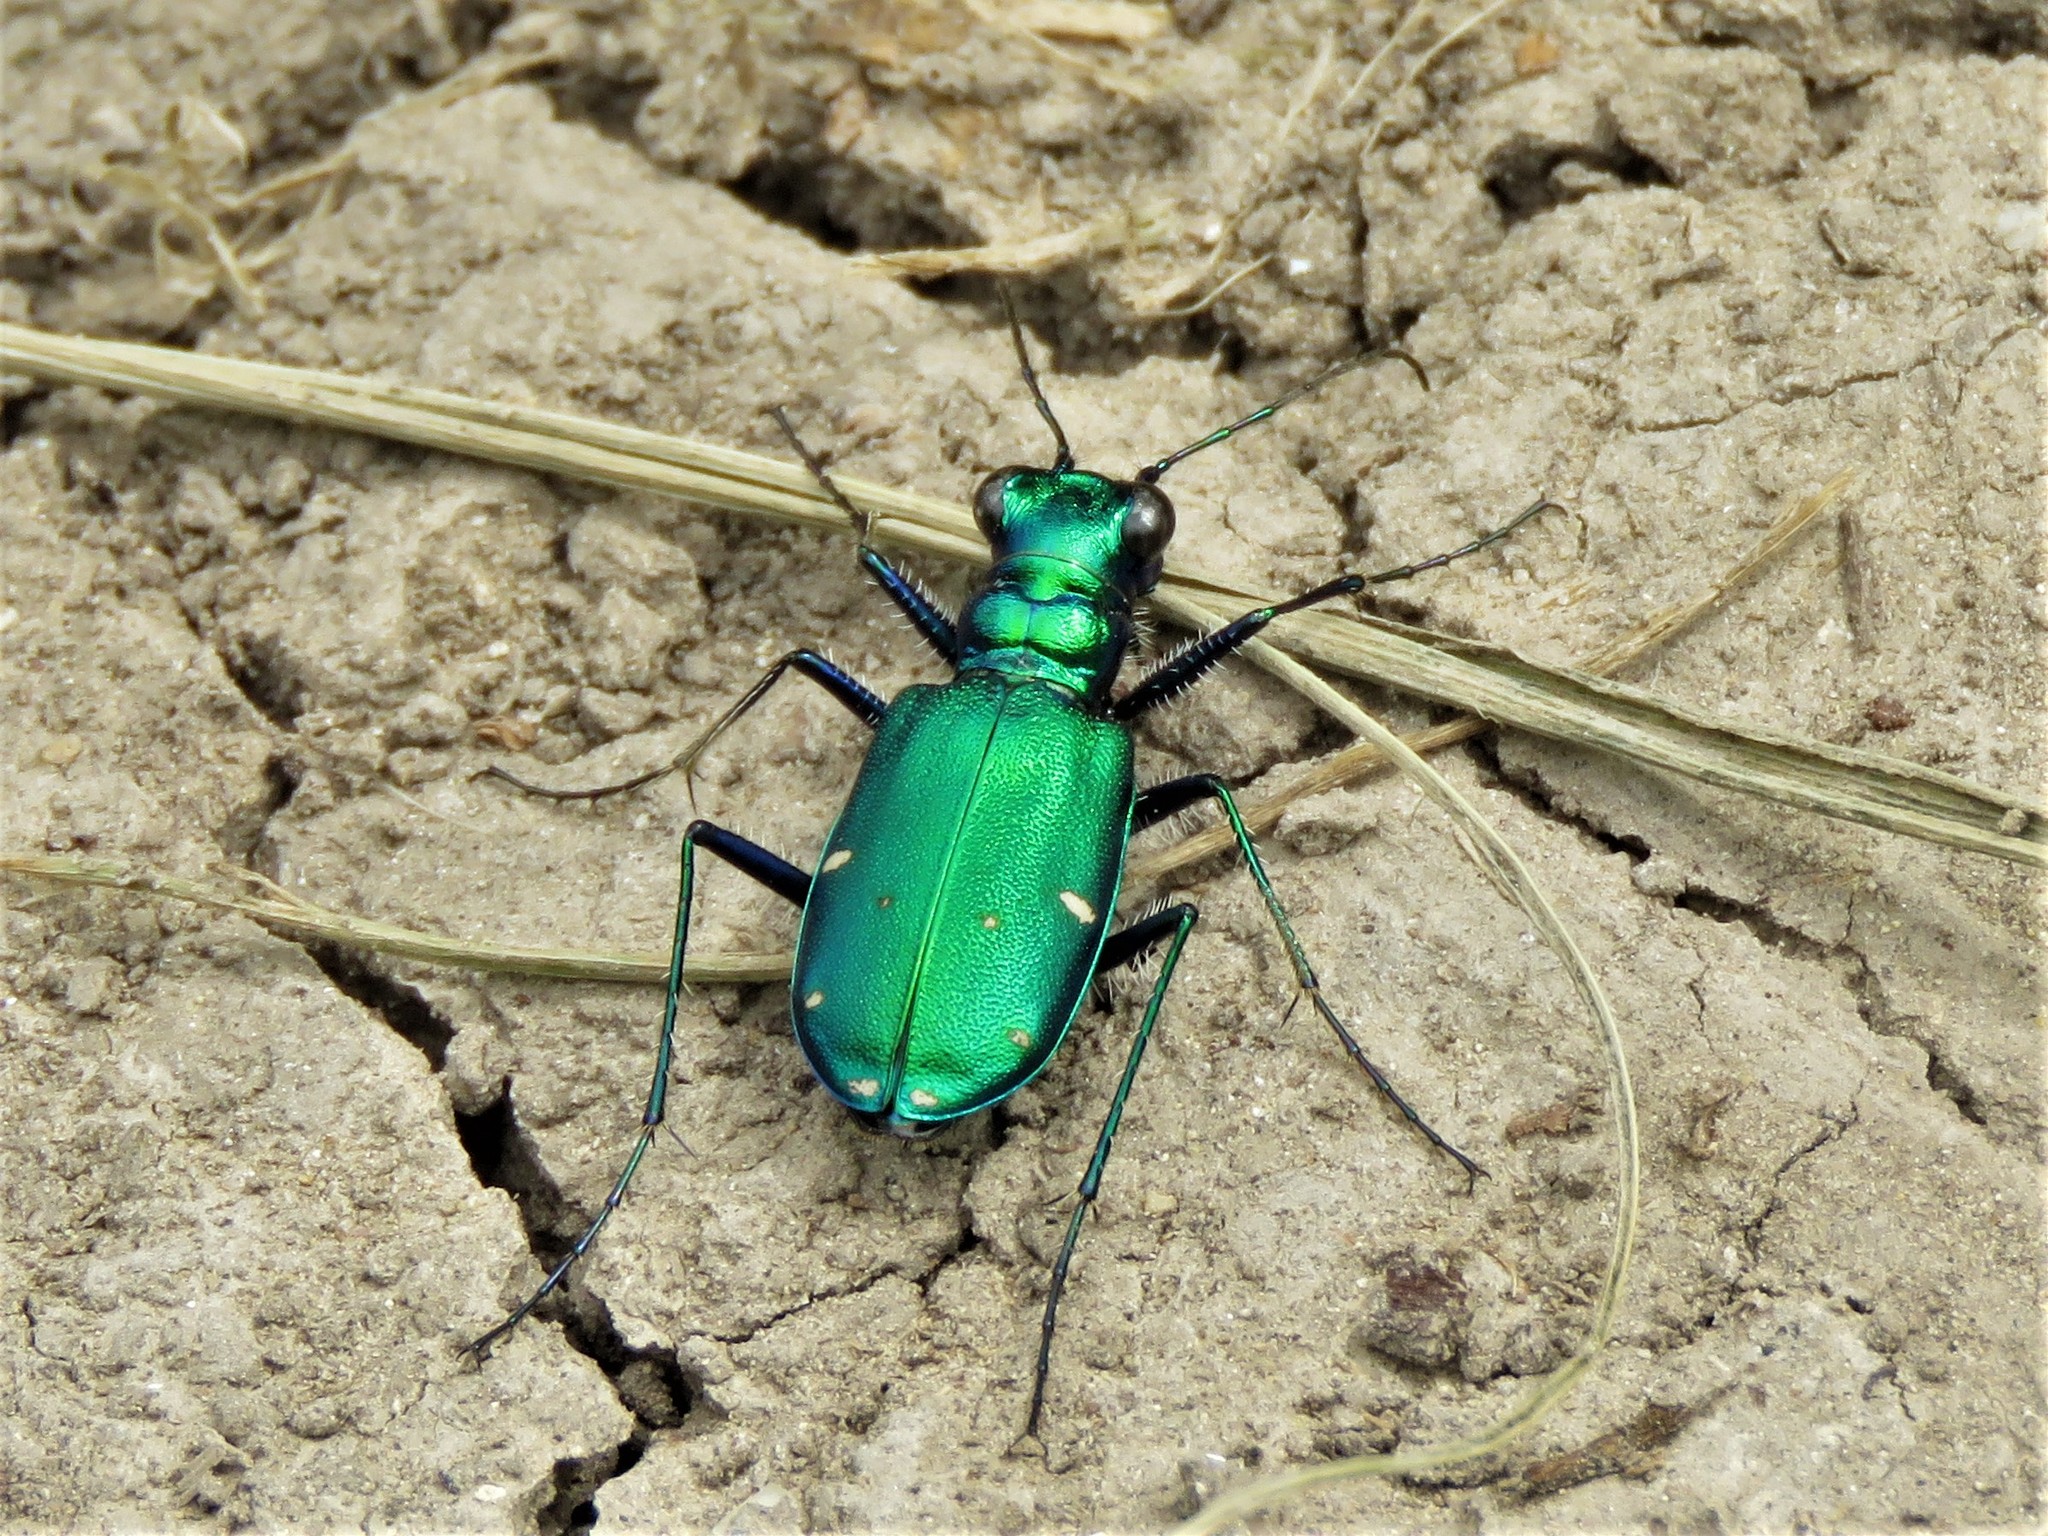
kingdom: Animalia
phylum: Arthropoda
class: Insecta
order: Coleoptera
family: Carabidae
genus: Cicindela
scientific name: Cicindela sexguttata
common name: Six-spotted tiger beetle
